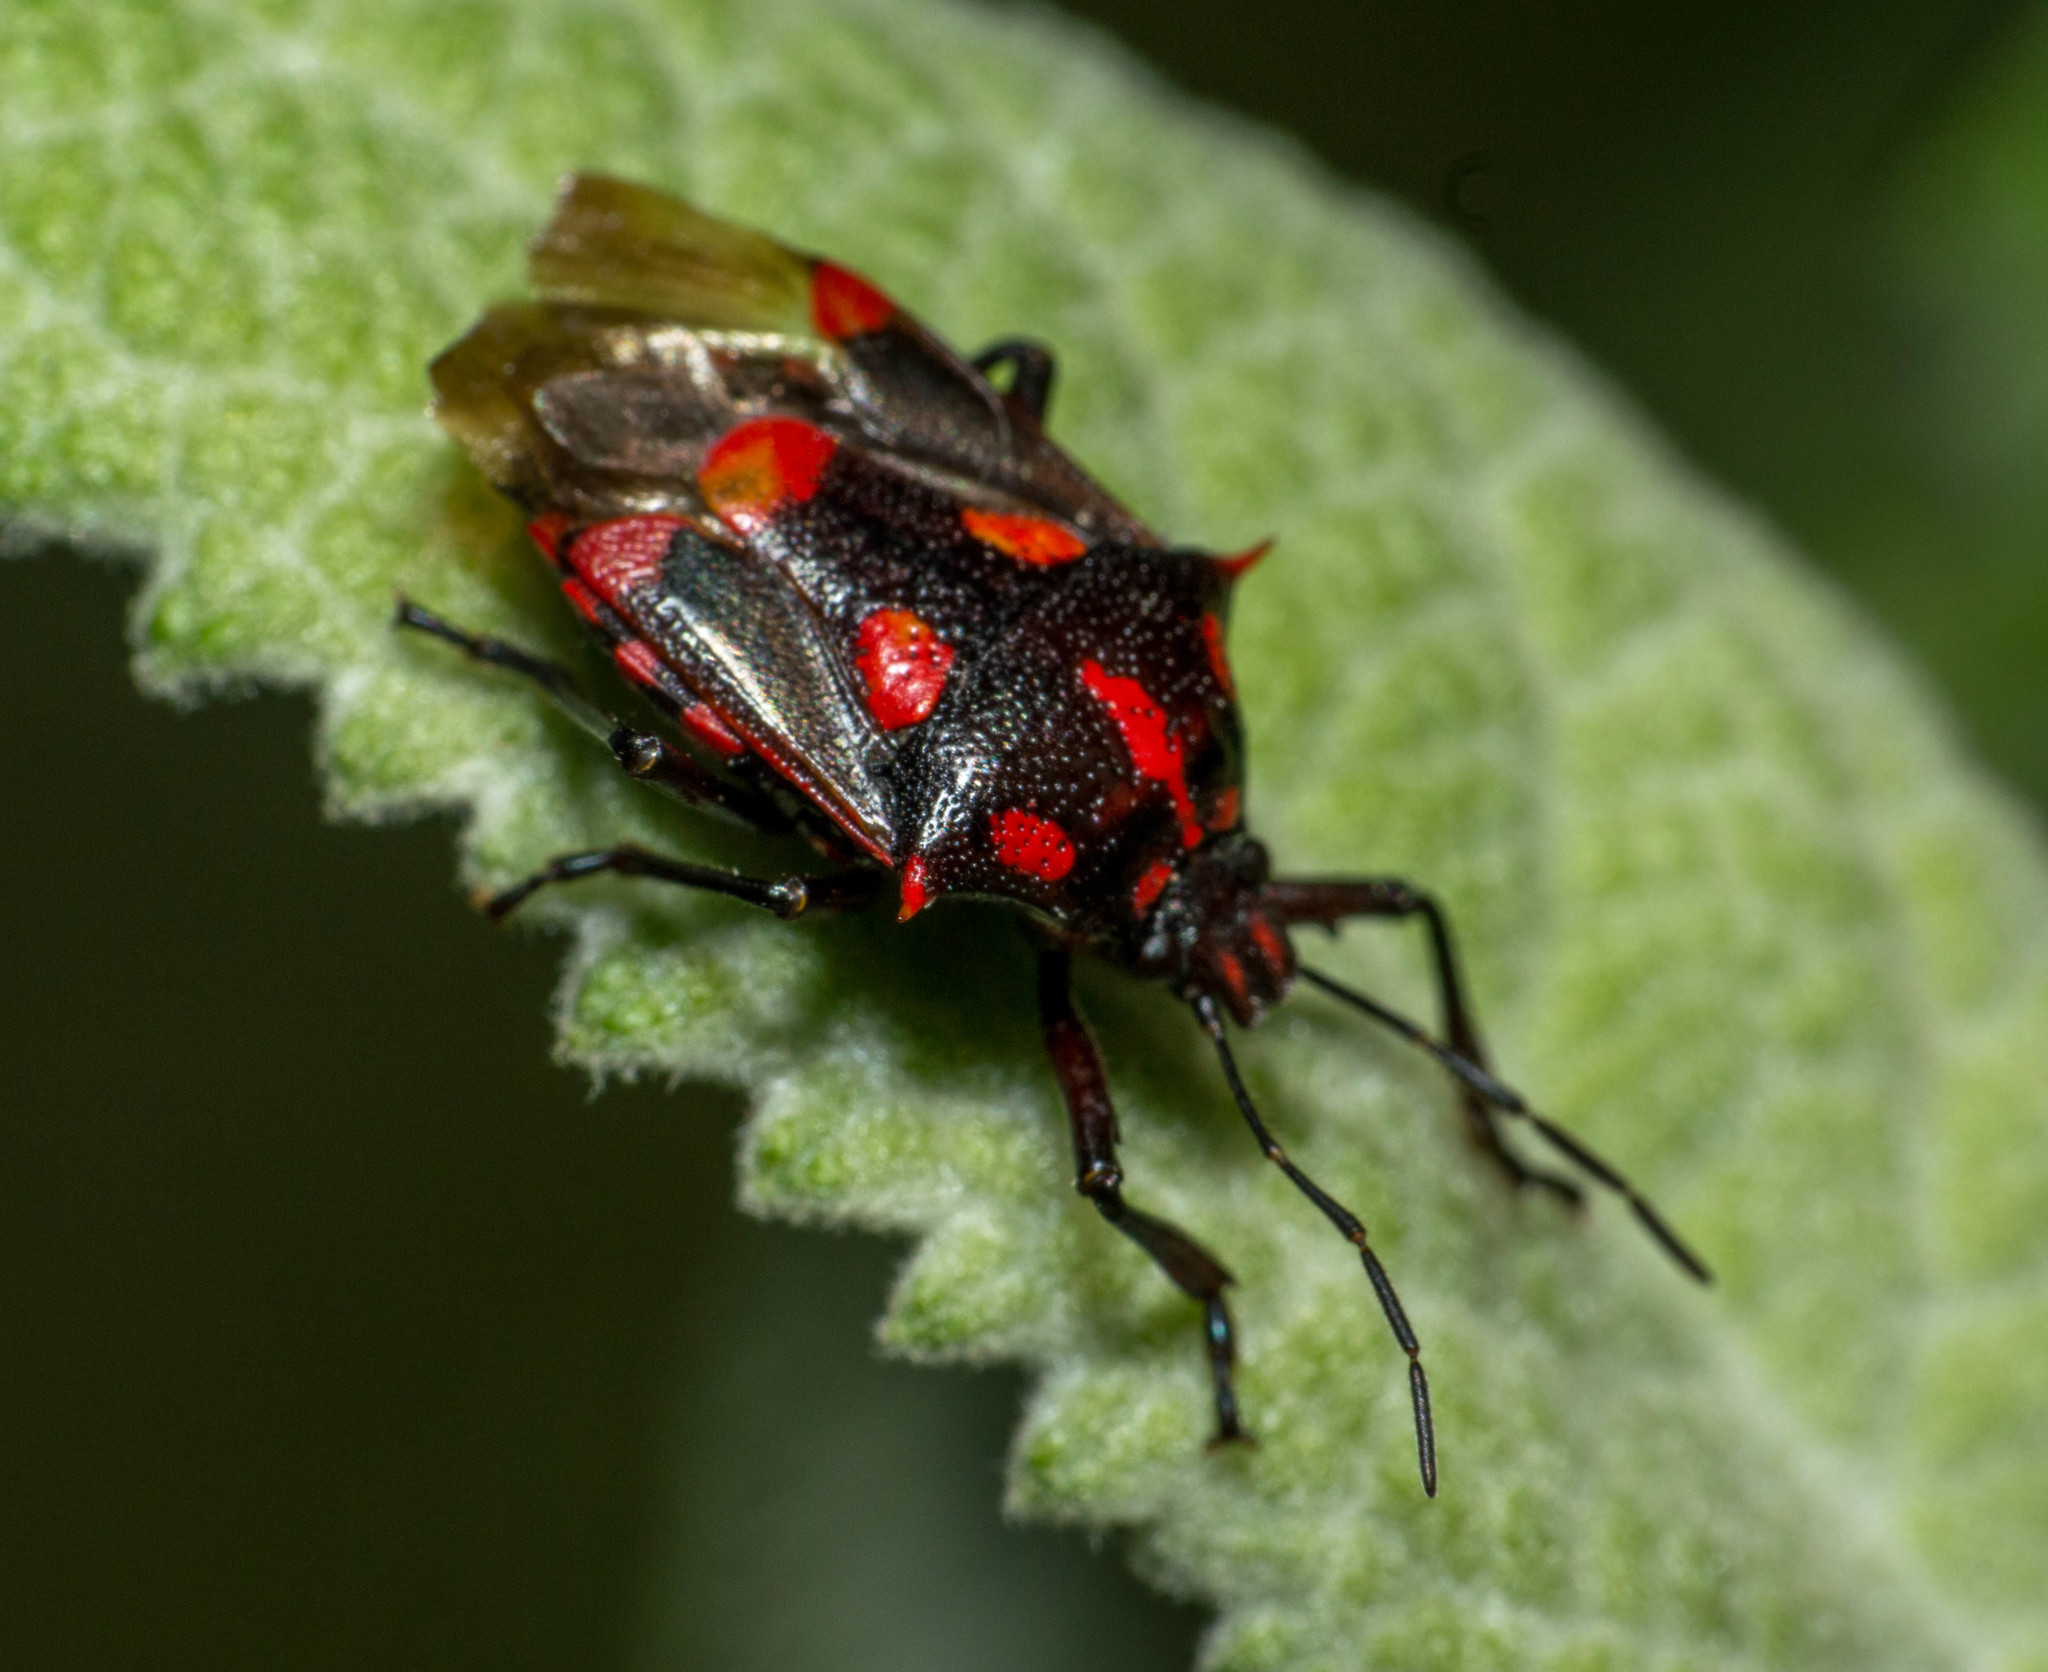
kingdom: Animalia
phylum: Arthropoda
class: Insecta
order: Hemiptera
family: Pentatomidae
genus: Oplomus
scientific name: Oplomus cruentus
